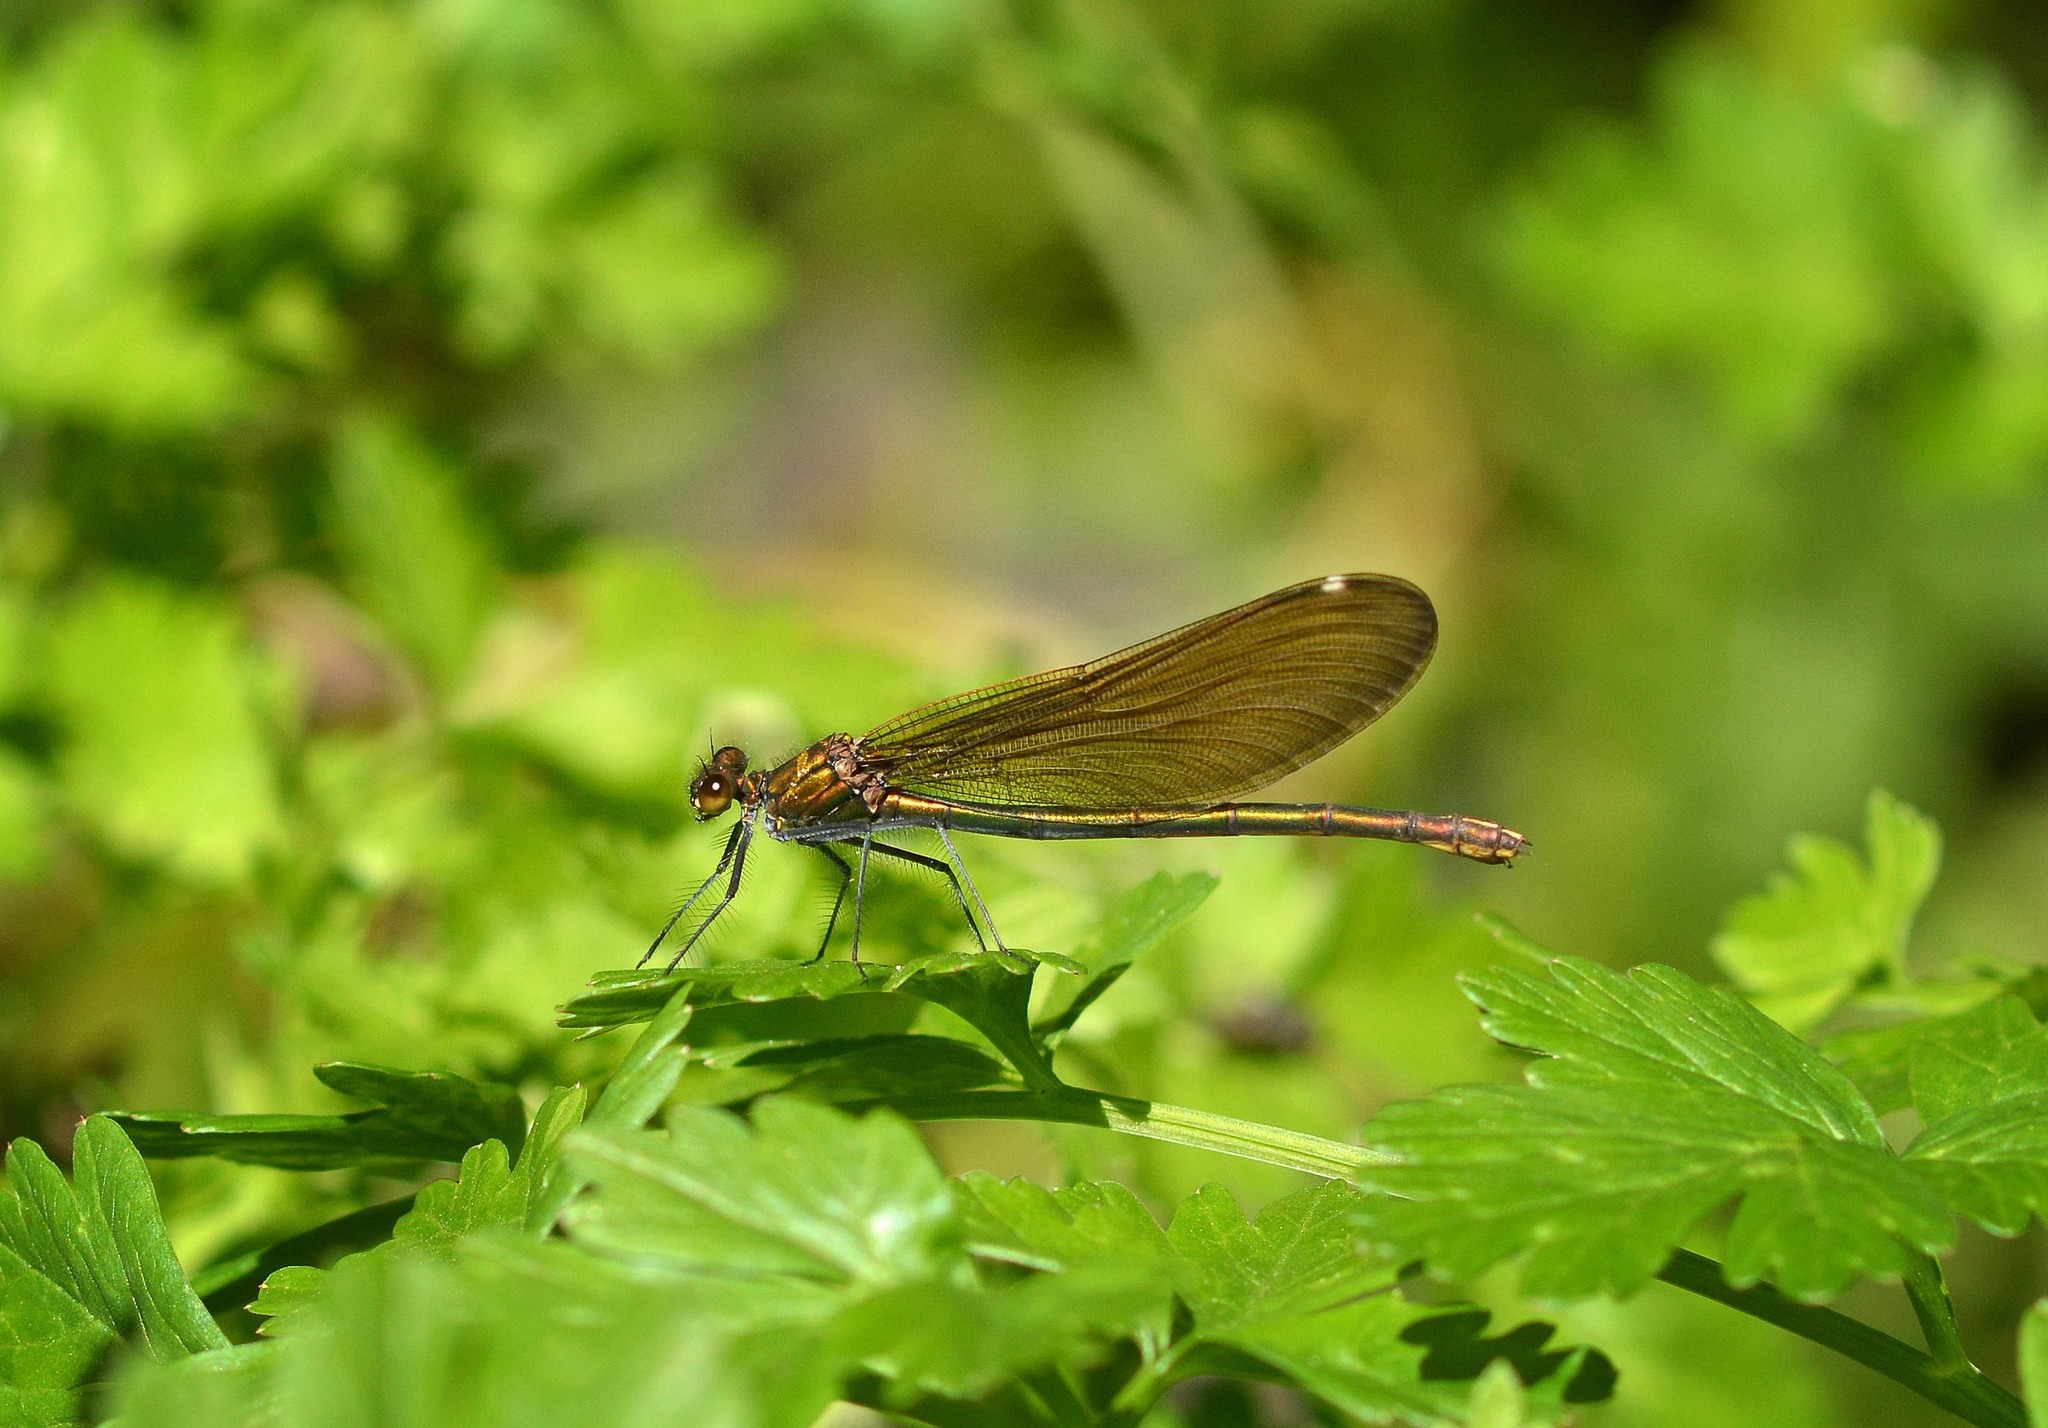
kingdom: Animalia
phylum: Arthropoda
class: Insecta
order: Odonata
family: Calopterygidae
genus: Calopteryx
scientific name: Calopteryx virgo
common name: Beautiful demoiselle
